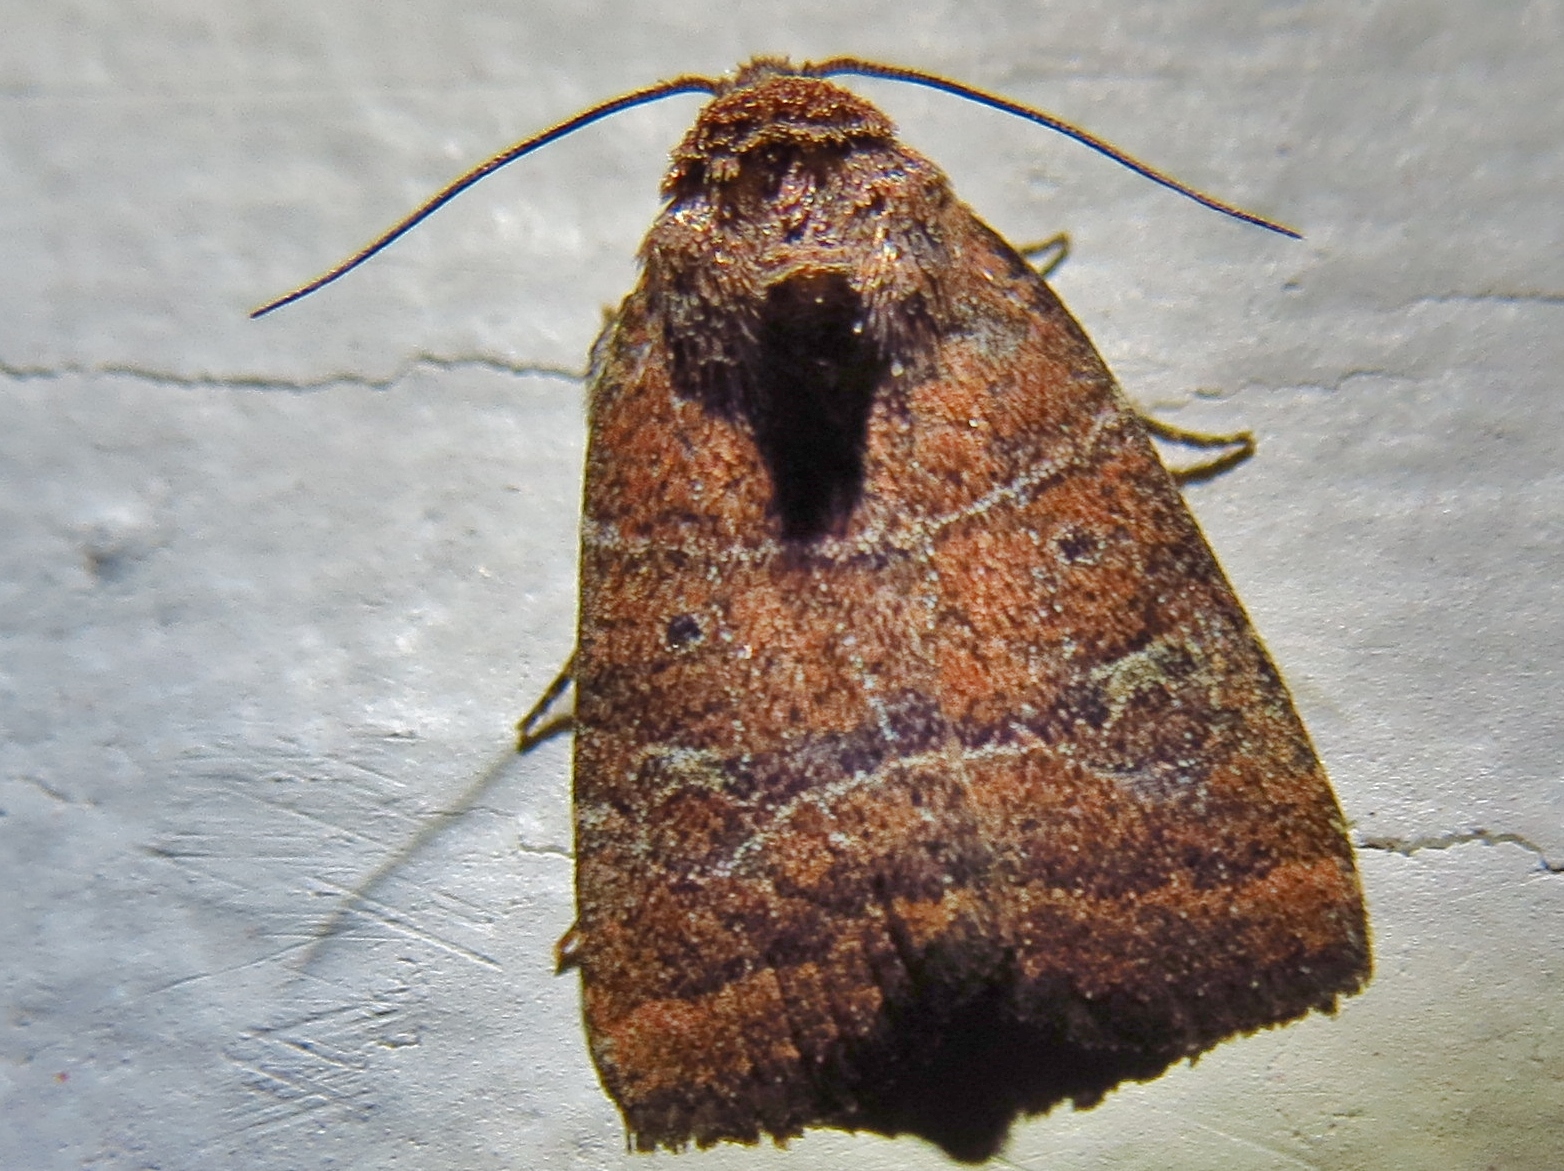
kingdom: Animalia
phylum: Arthropoda
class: Insecta
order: Lepidoptera
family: Noctuidae
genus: Elaphria
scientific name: Elaphria grata
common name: Grateful midget moth
